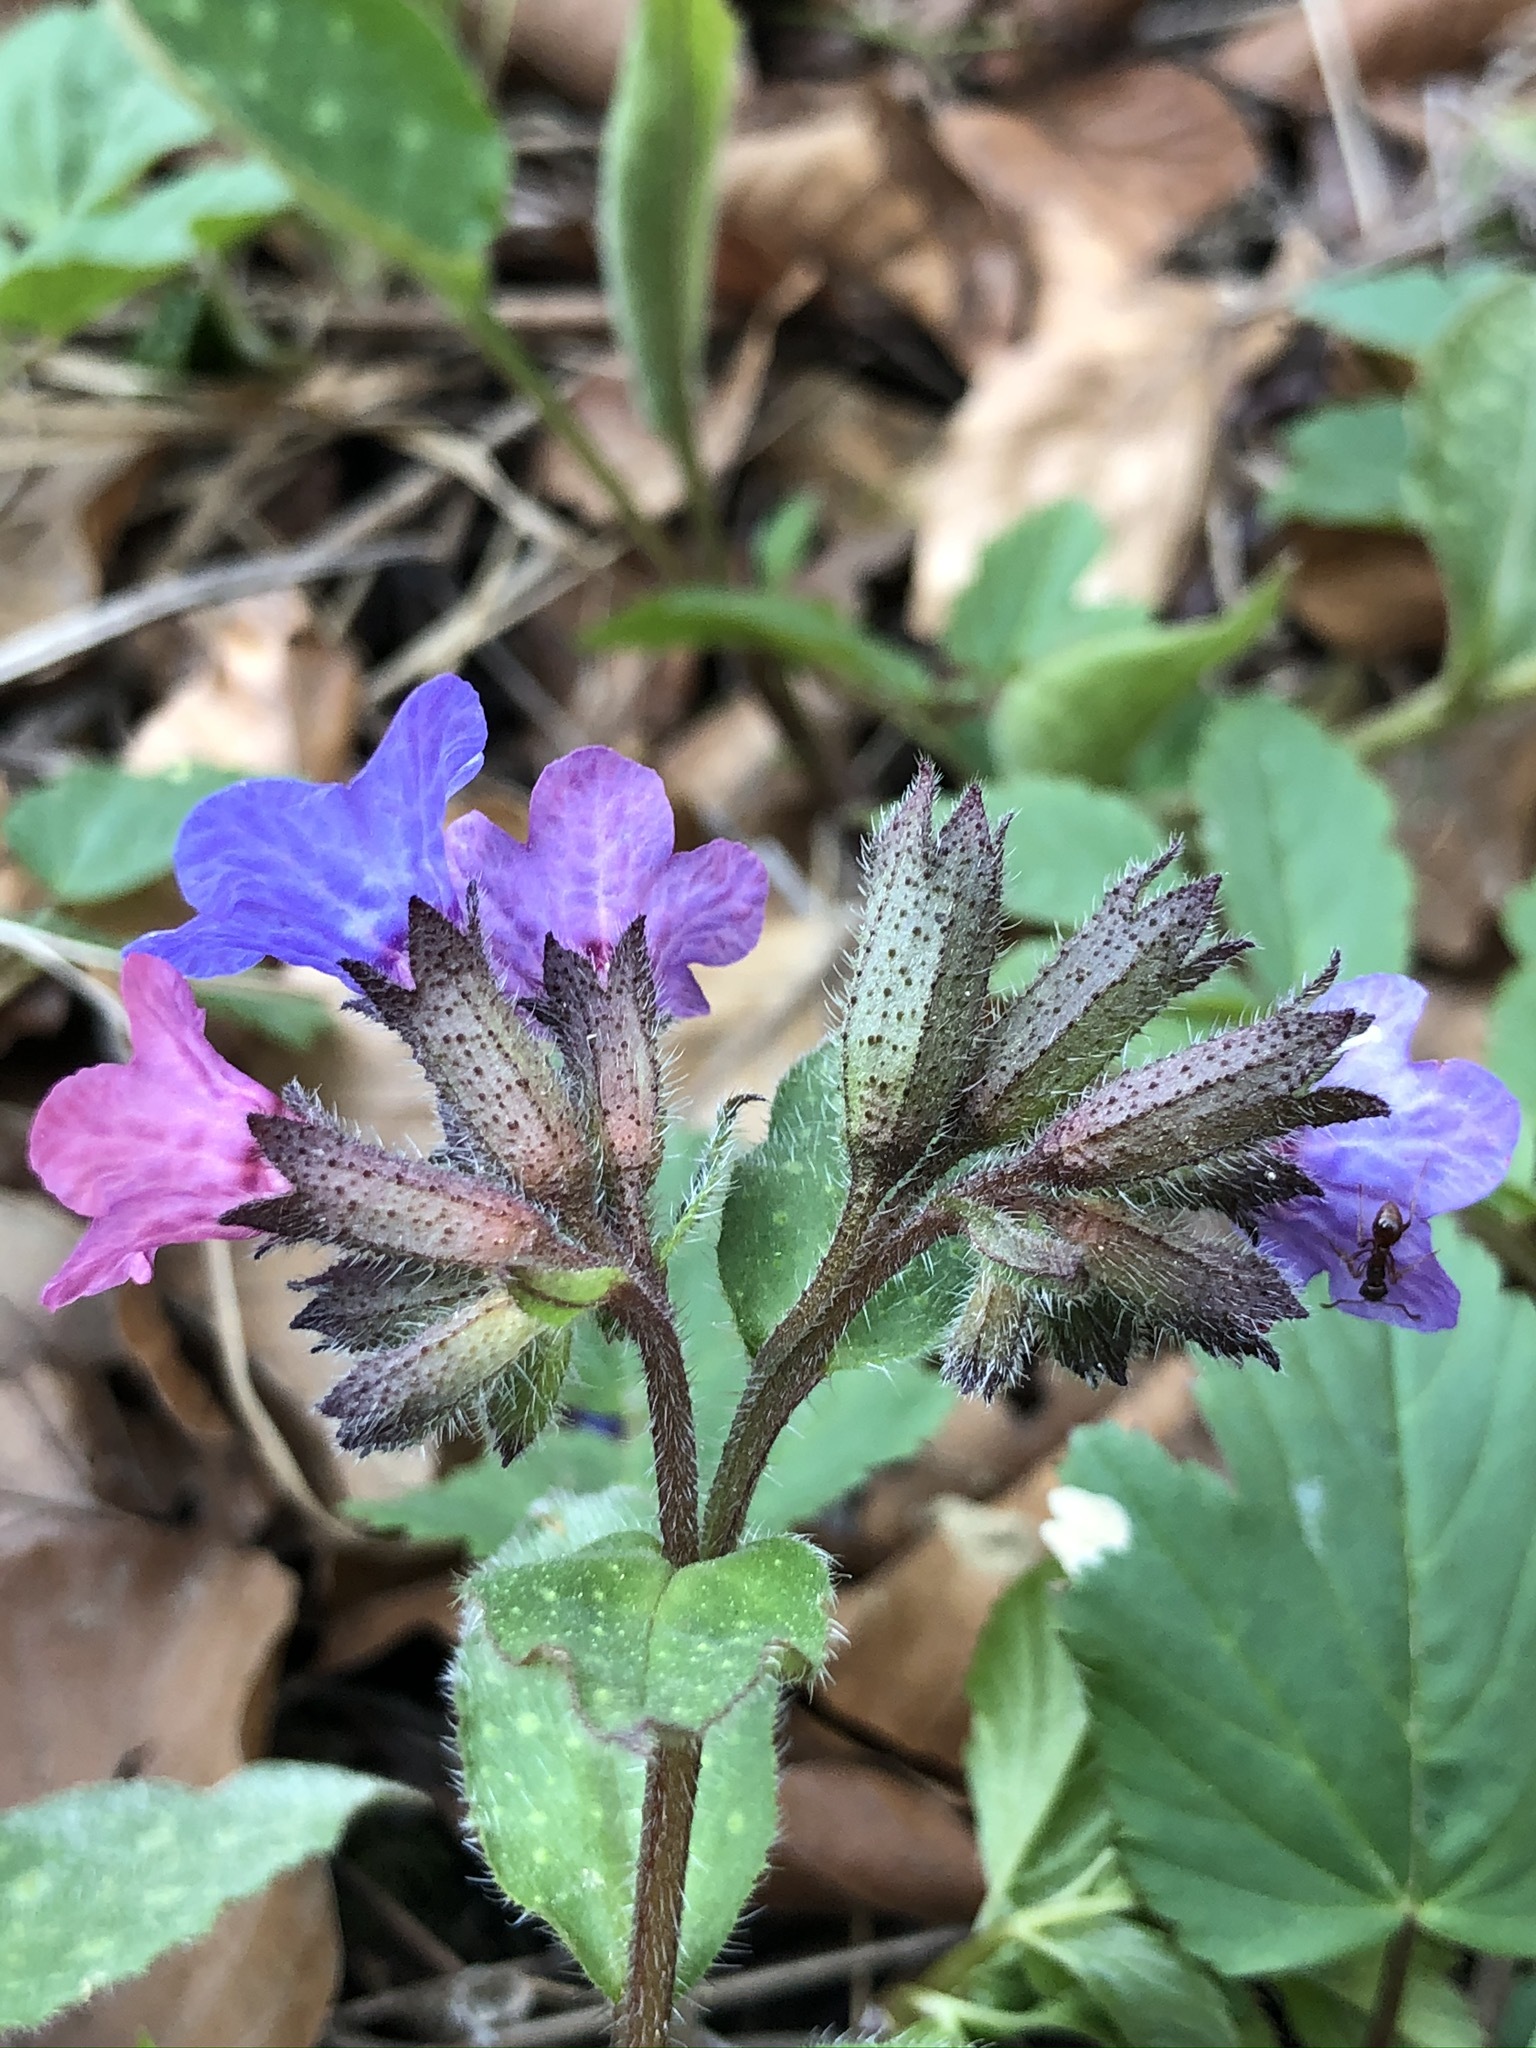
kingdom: Plantae
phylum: Tracheophyta
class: Magnoliopsida
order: Boraginales
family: Boraginaceae
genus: Pulmonaria
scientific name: Pulmonaria officinalis
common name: Lungwort
